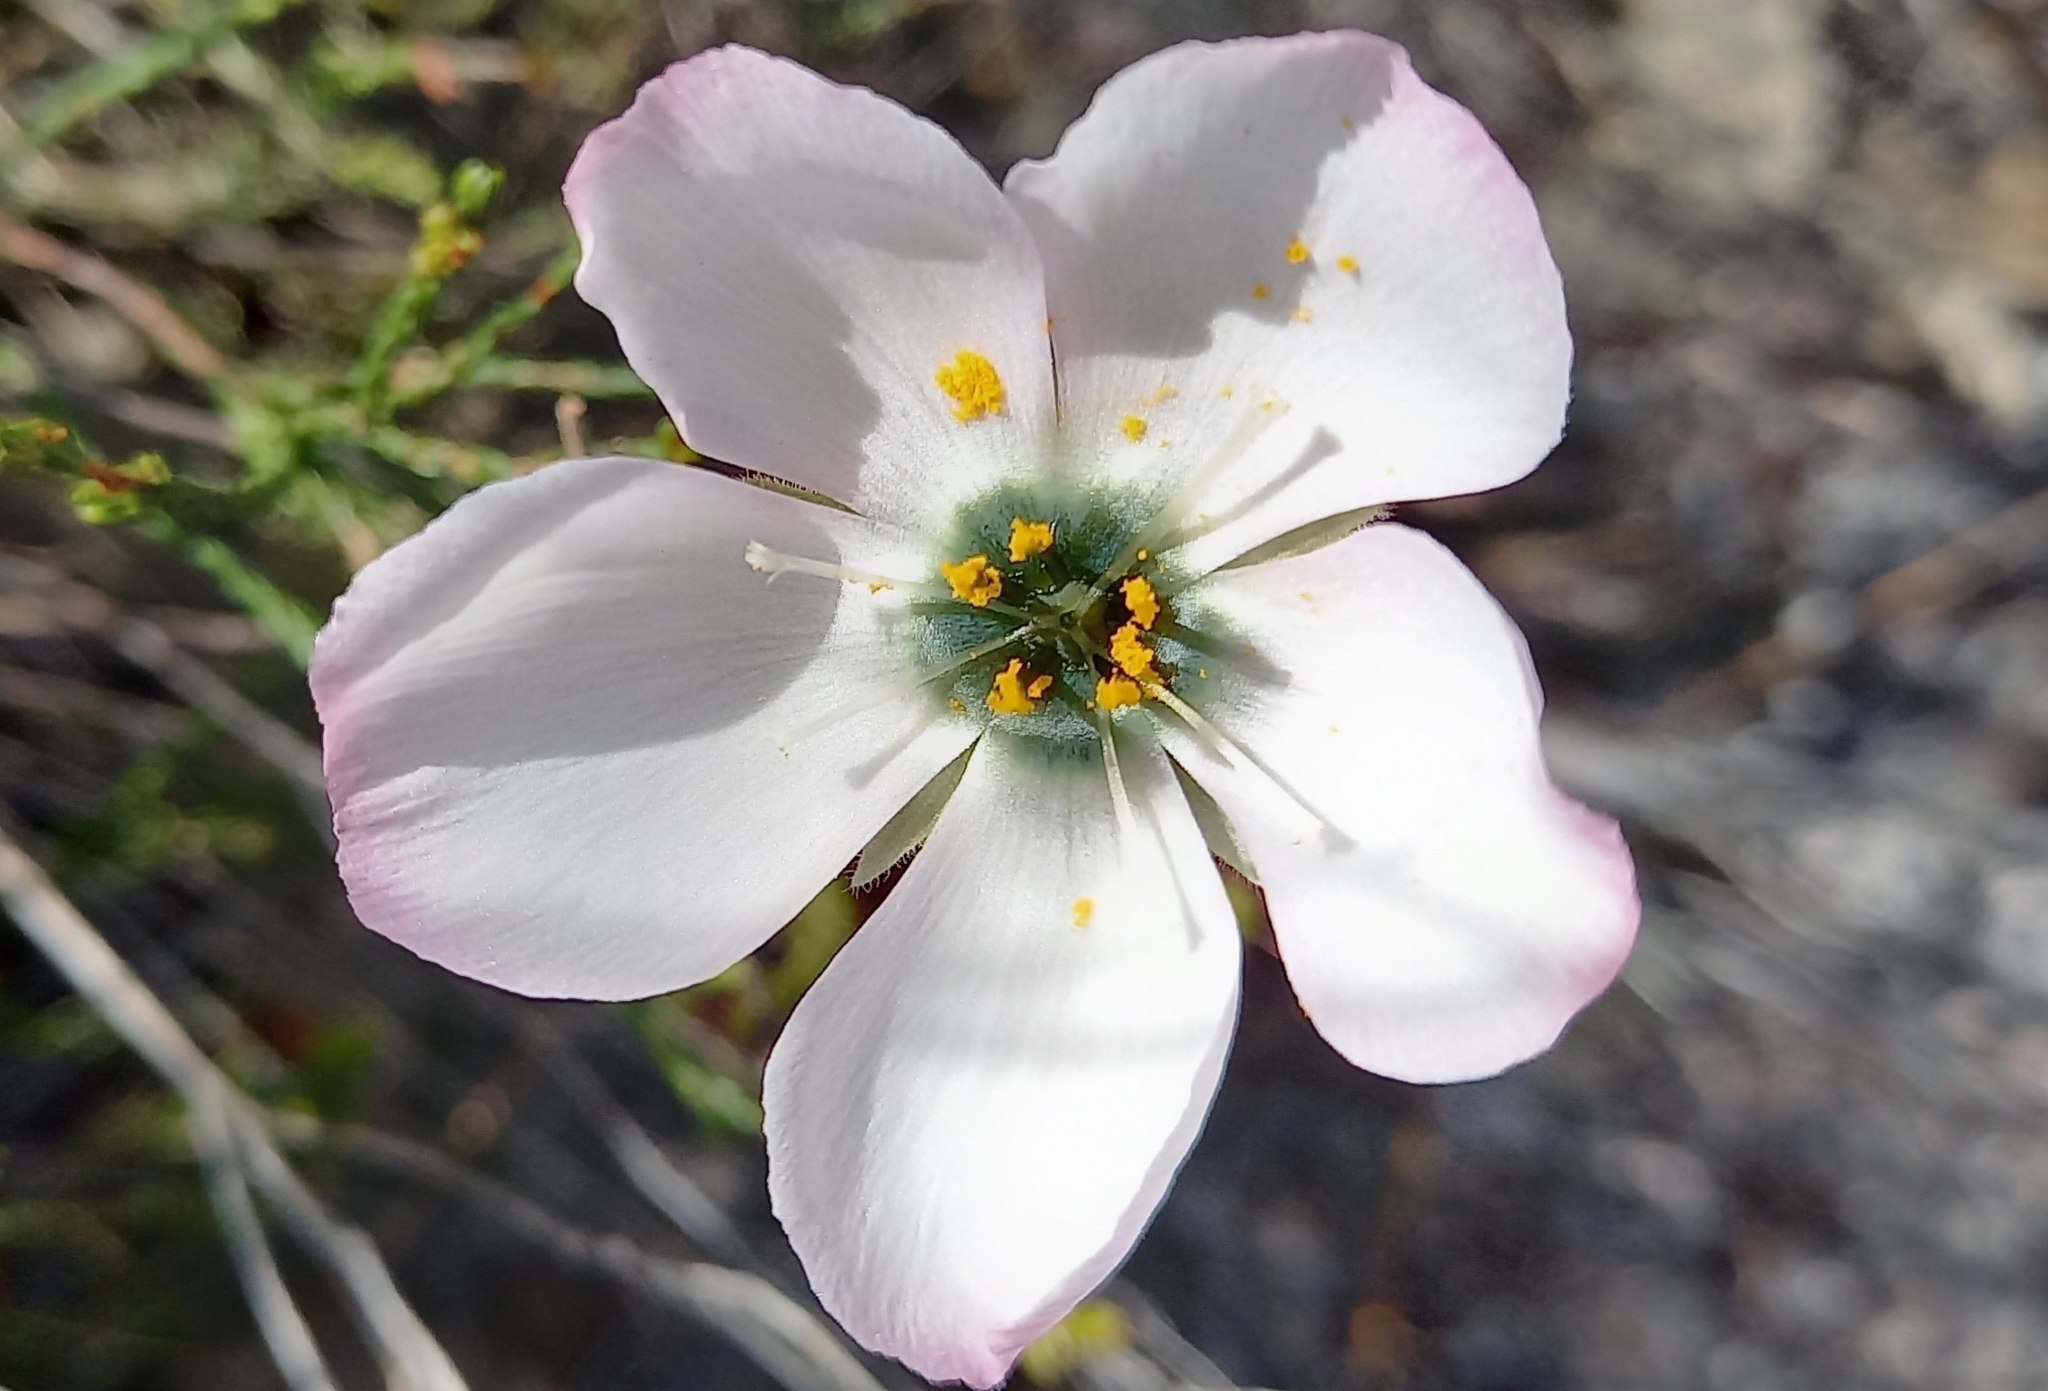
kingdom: Plantae
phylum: Tracheophyta
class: Magnoliopsida
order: Caryophyllales
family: Droseraceae
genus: Drosera
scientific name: Drosera cistiflora
